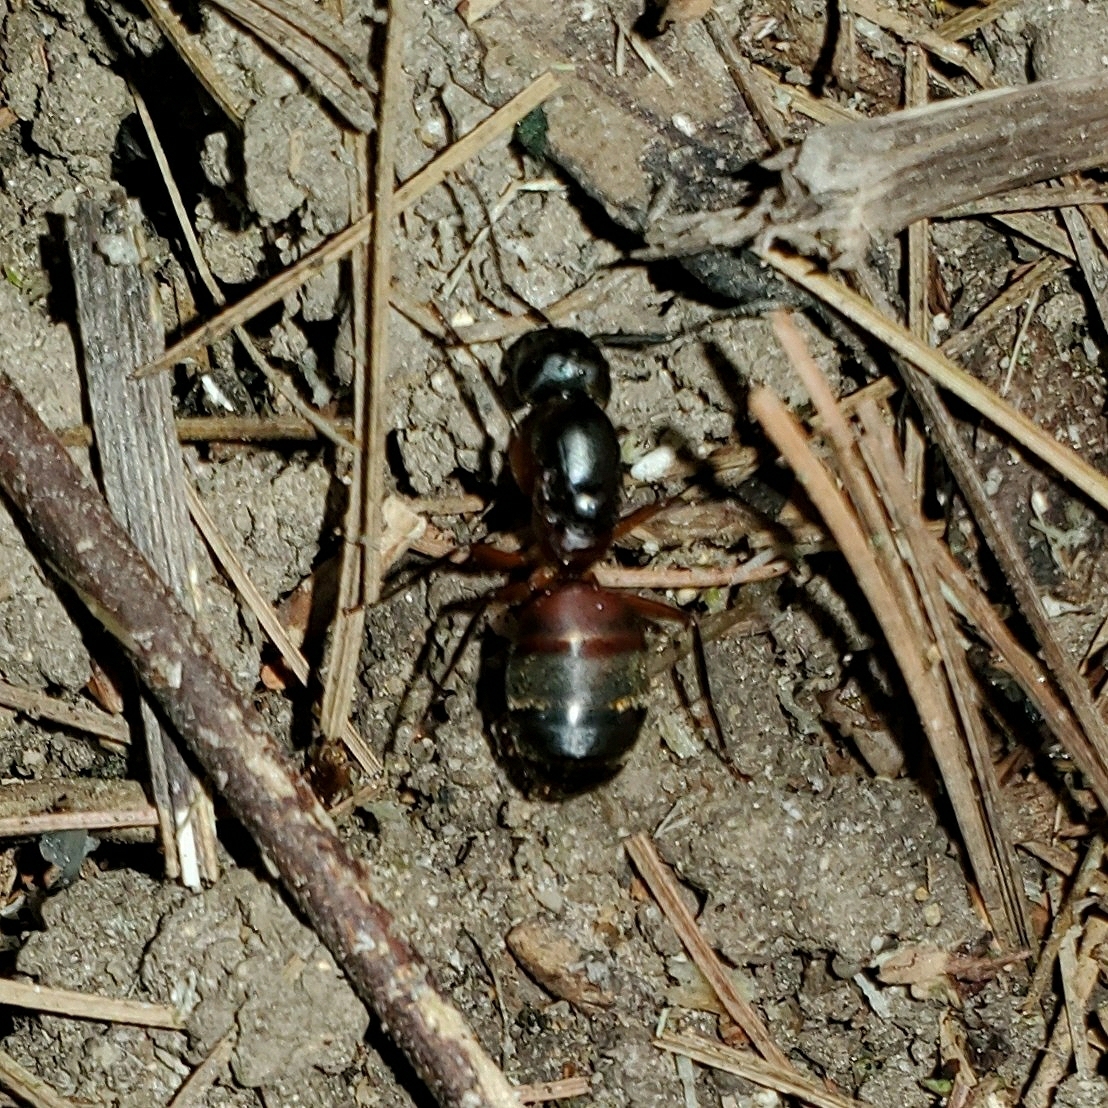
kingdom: Animalia
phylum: Arthropoda
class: Insecta
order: Hymenoptera
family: Formicidae
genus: Camponotus
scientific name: Camponotus chromaiodes
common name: Red carpenter ant
